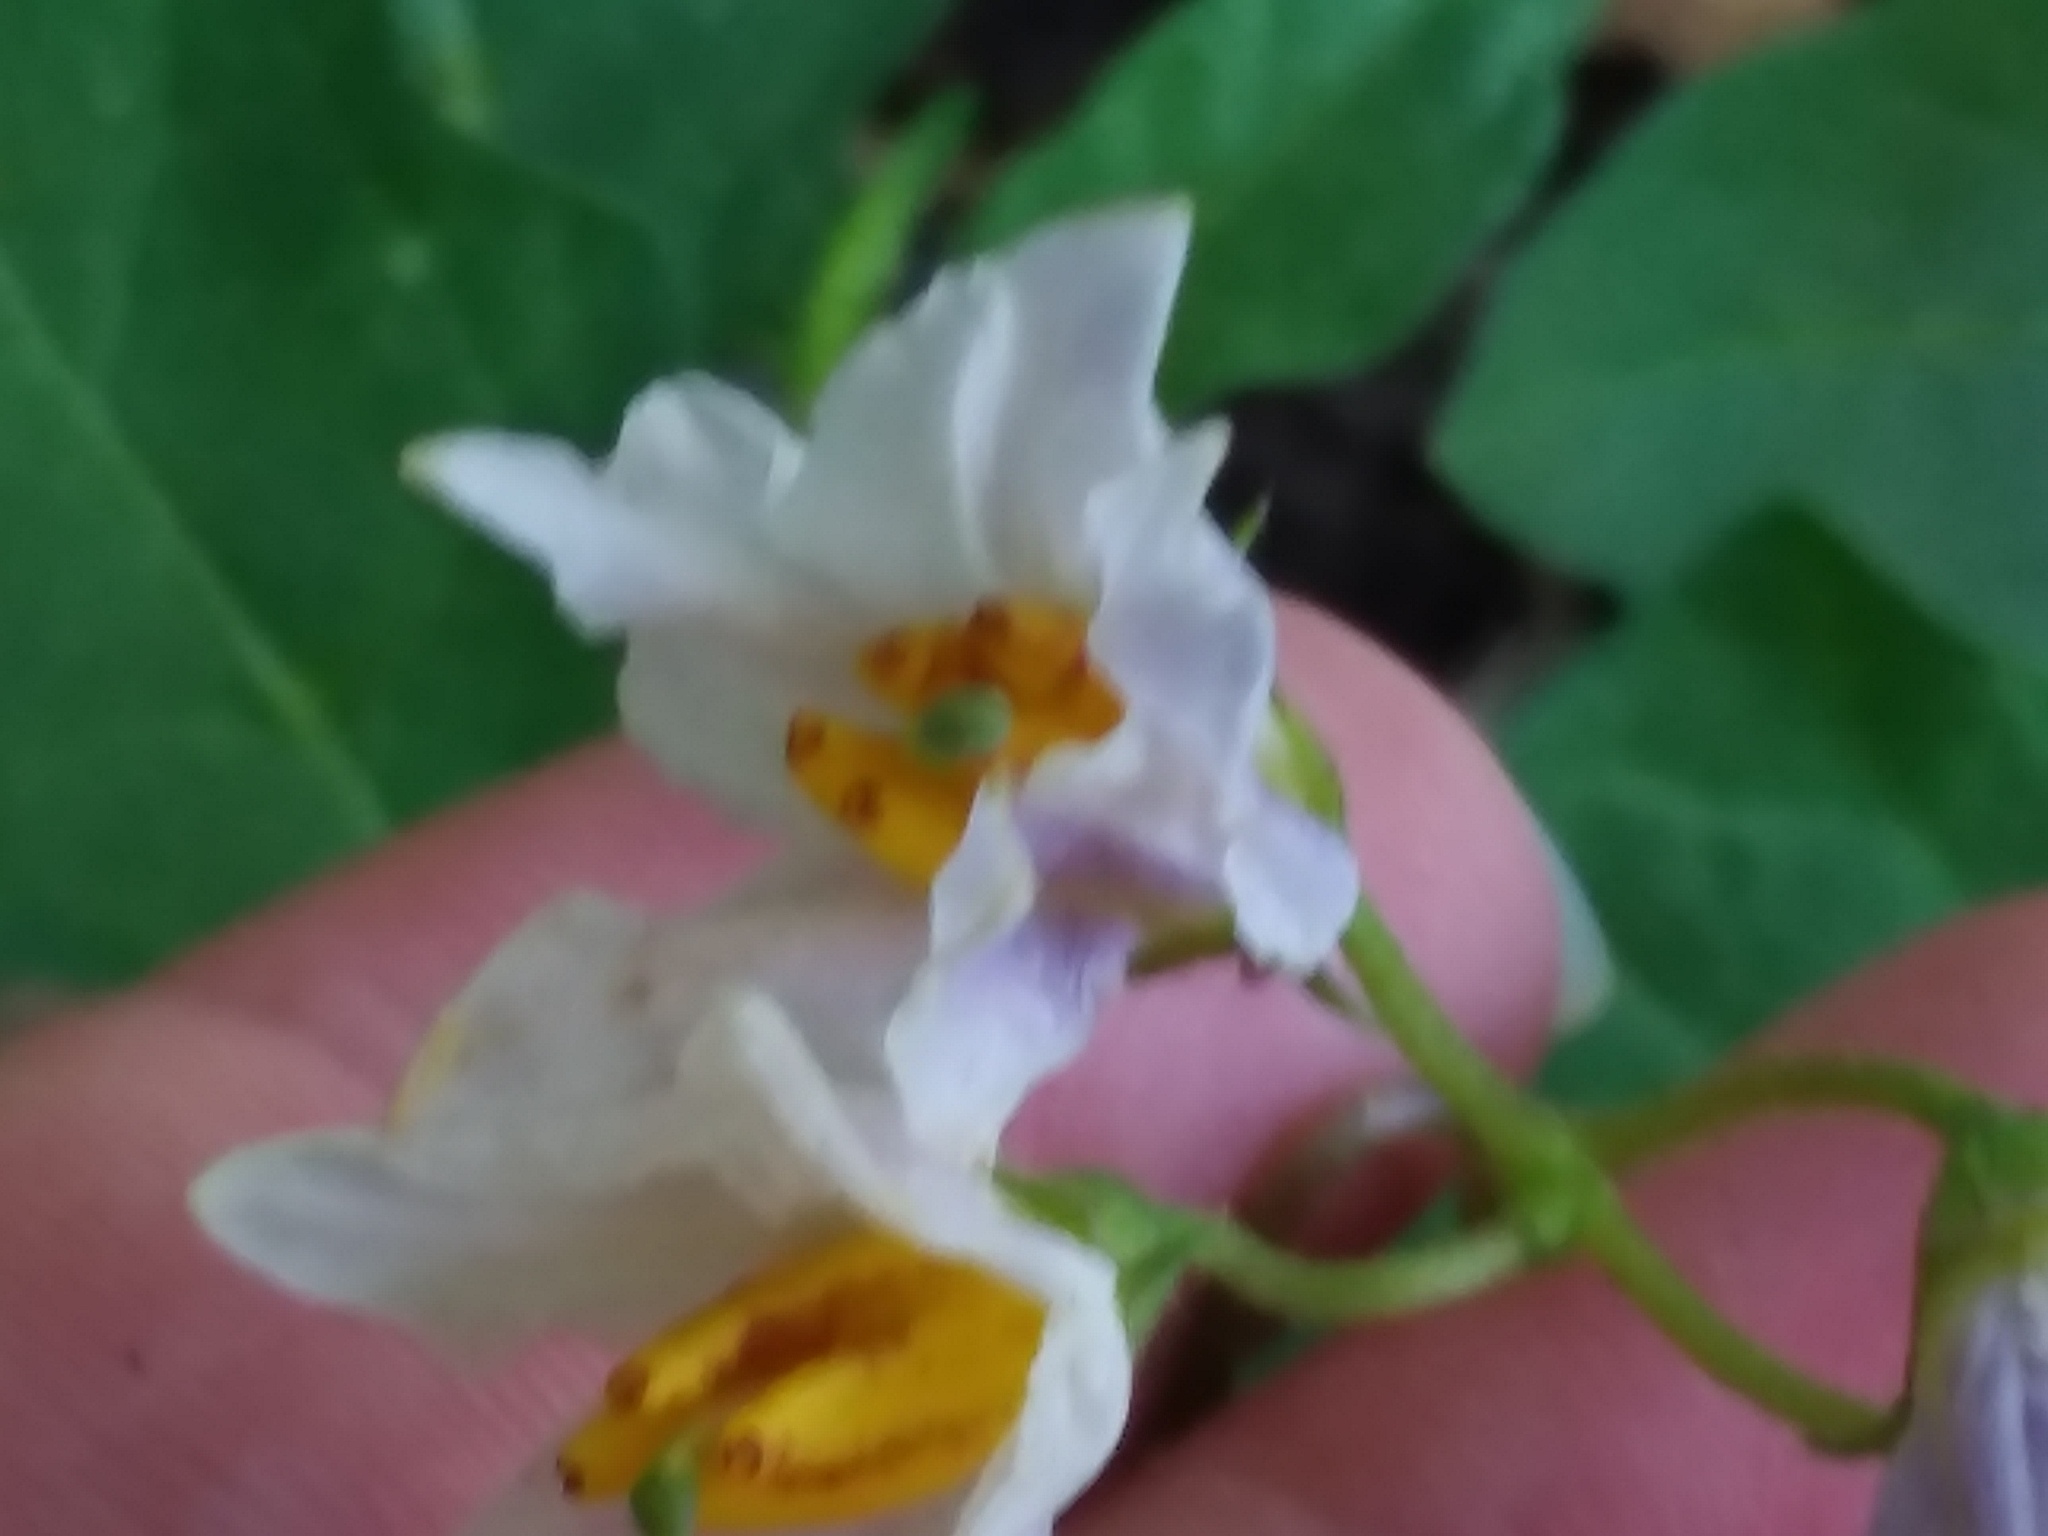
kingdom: Plantae
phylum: Tracheophyta
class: Magnoliopsida
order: Solanales
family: Solanaceae
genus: Solanum
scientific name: Solanum carolinense
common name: Horse-nettle
